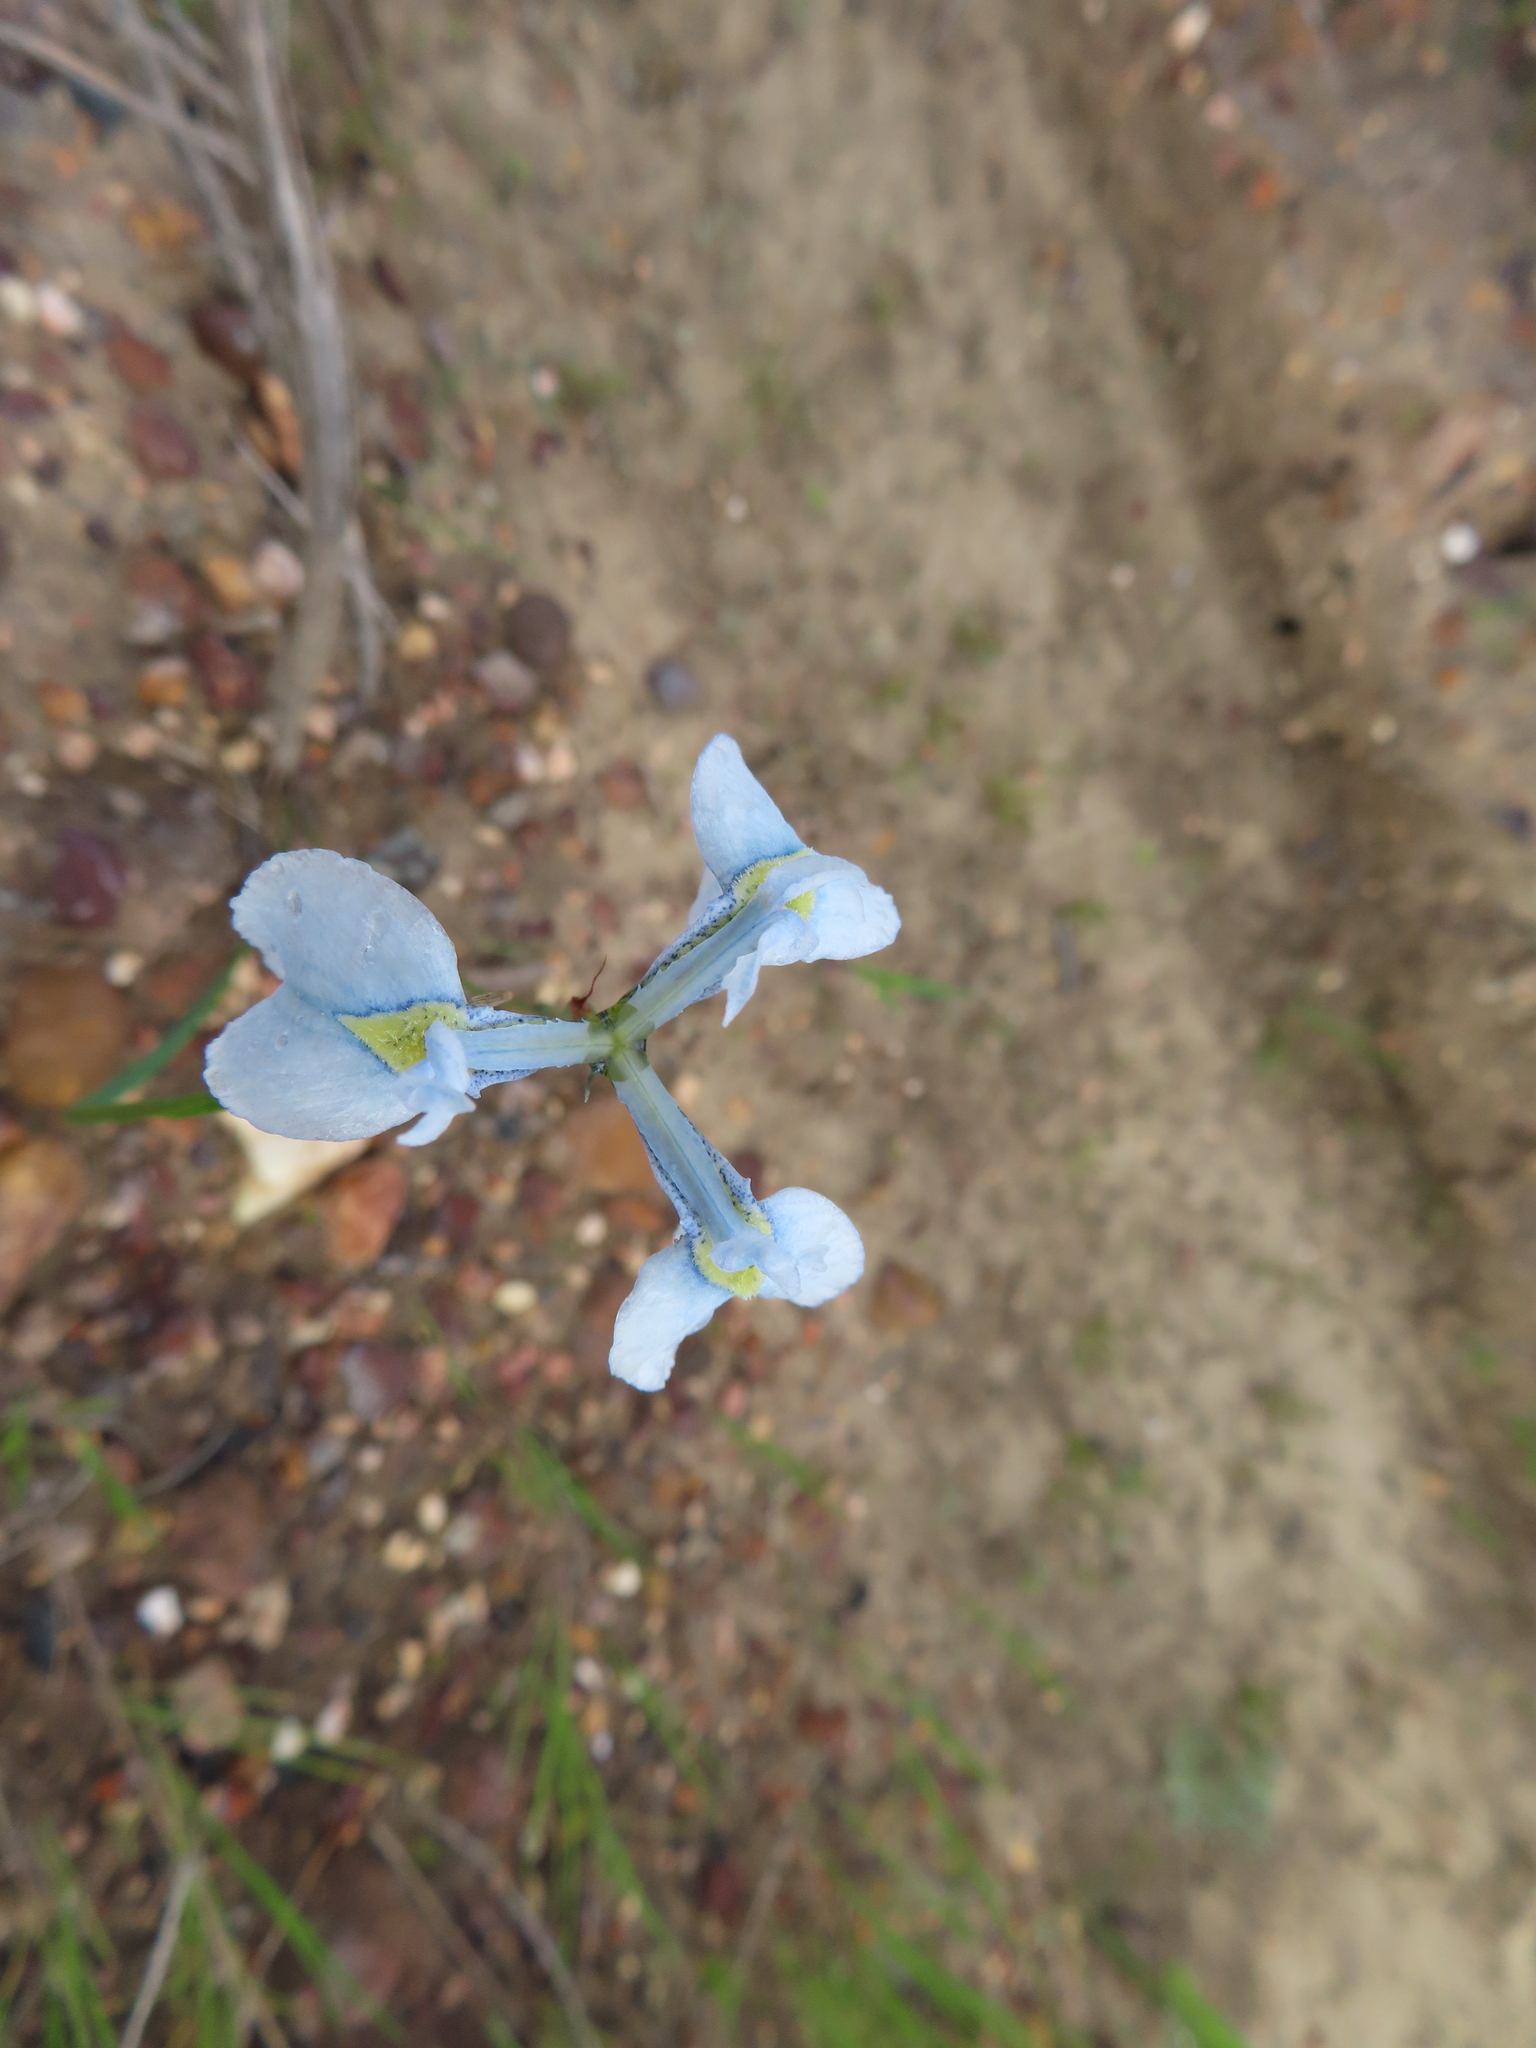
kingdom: Plantae
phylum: Tracheophyta
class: Liliopsida
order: Asparagales
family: Iridaceae
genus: Moraea
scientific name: Moraea tripetala
